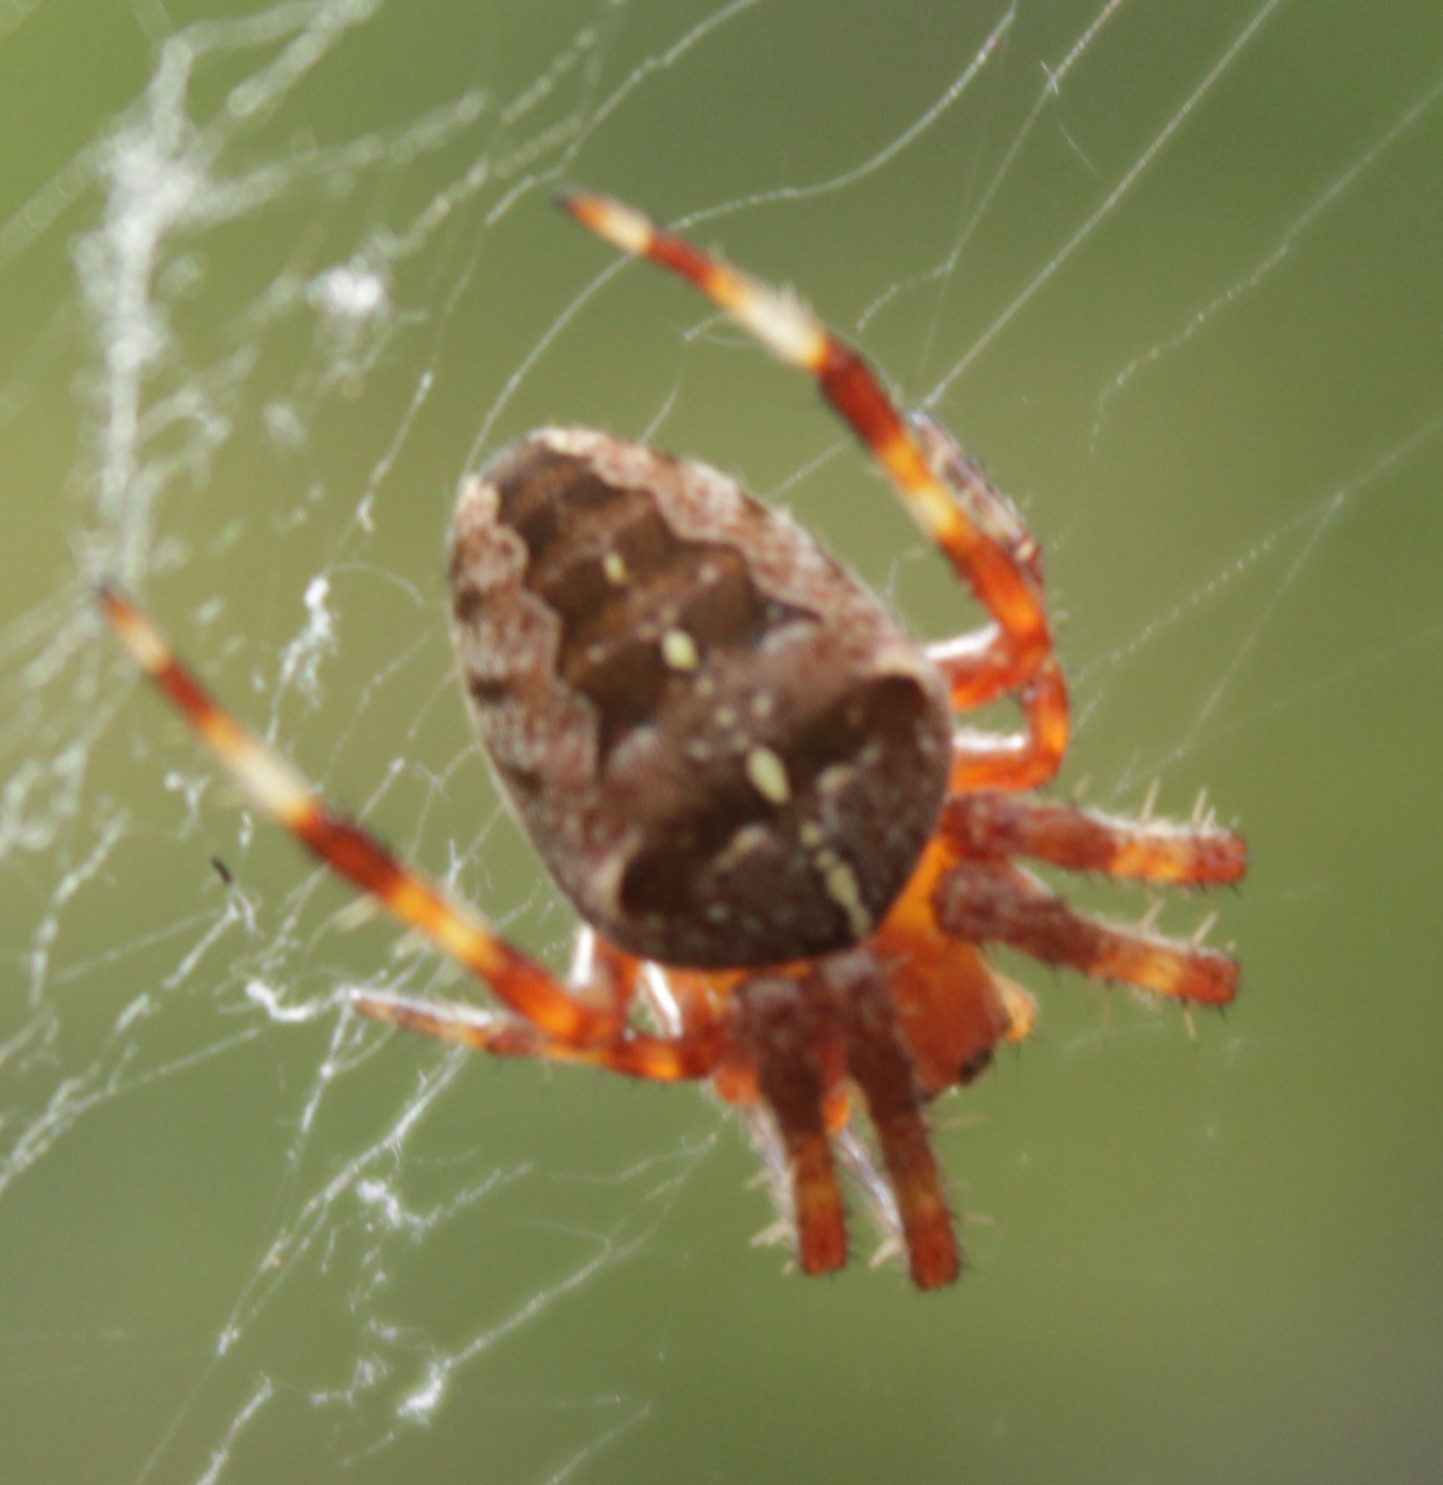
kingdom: Animalia
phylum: Arthropoda
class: Arachnida
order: Araneae
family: Araneidae
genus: Araneus
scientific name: Araneus diadematus
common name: Cross orbweaver
